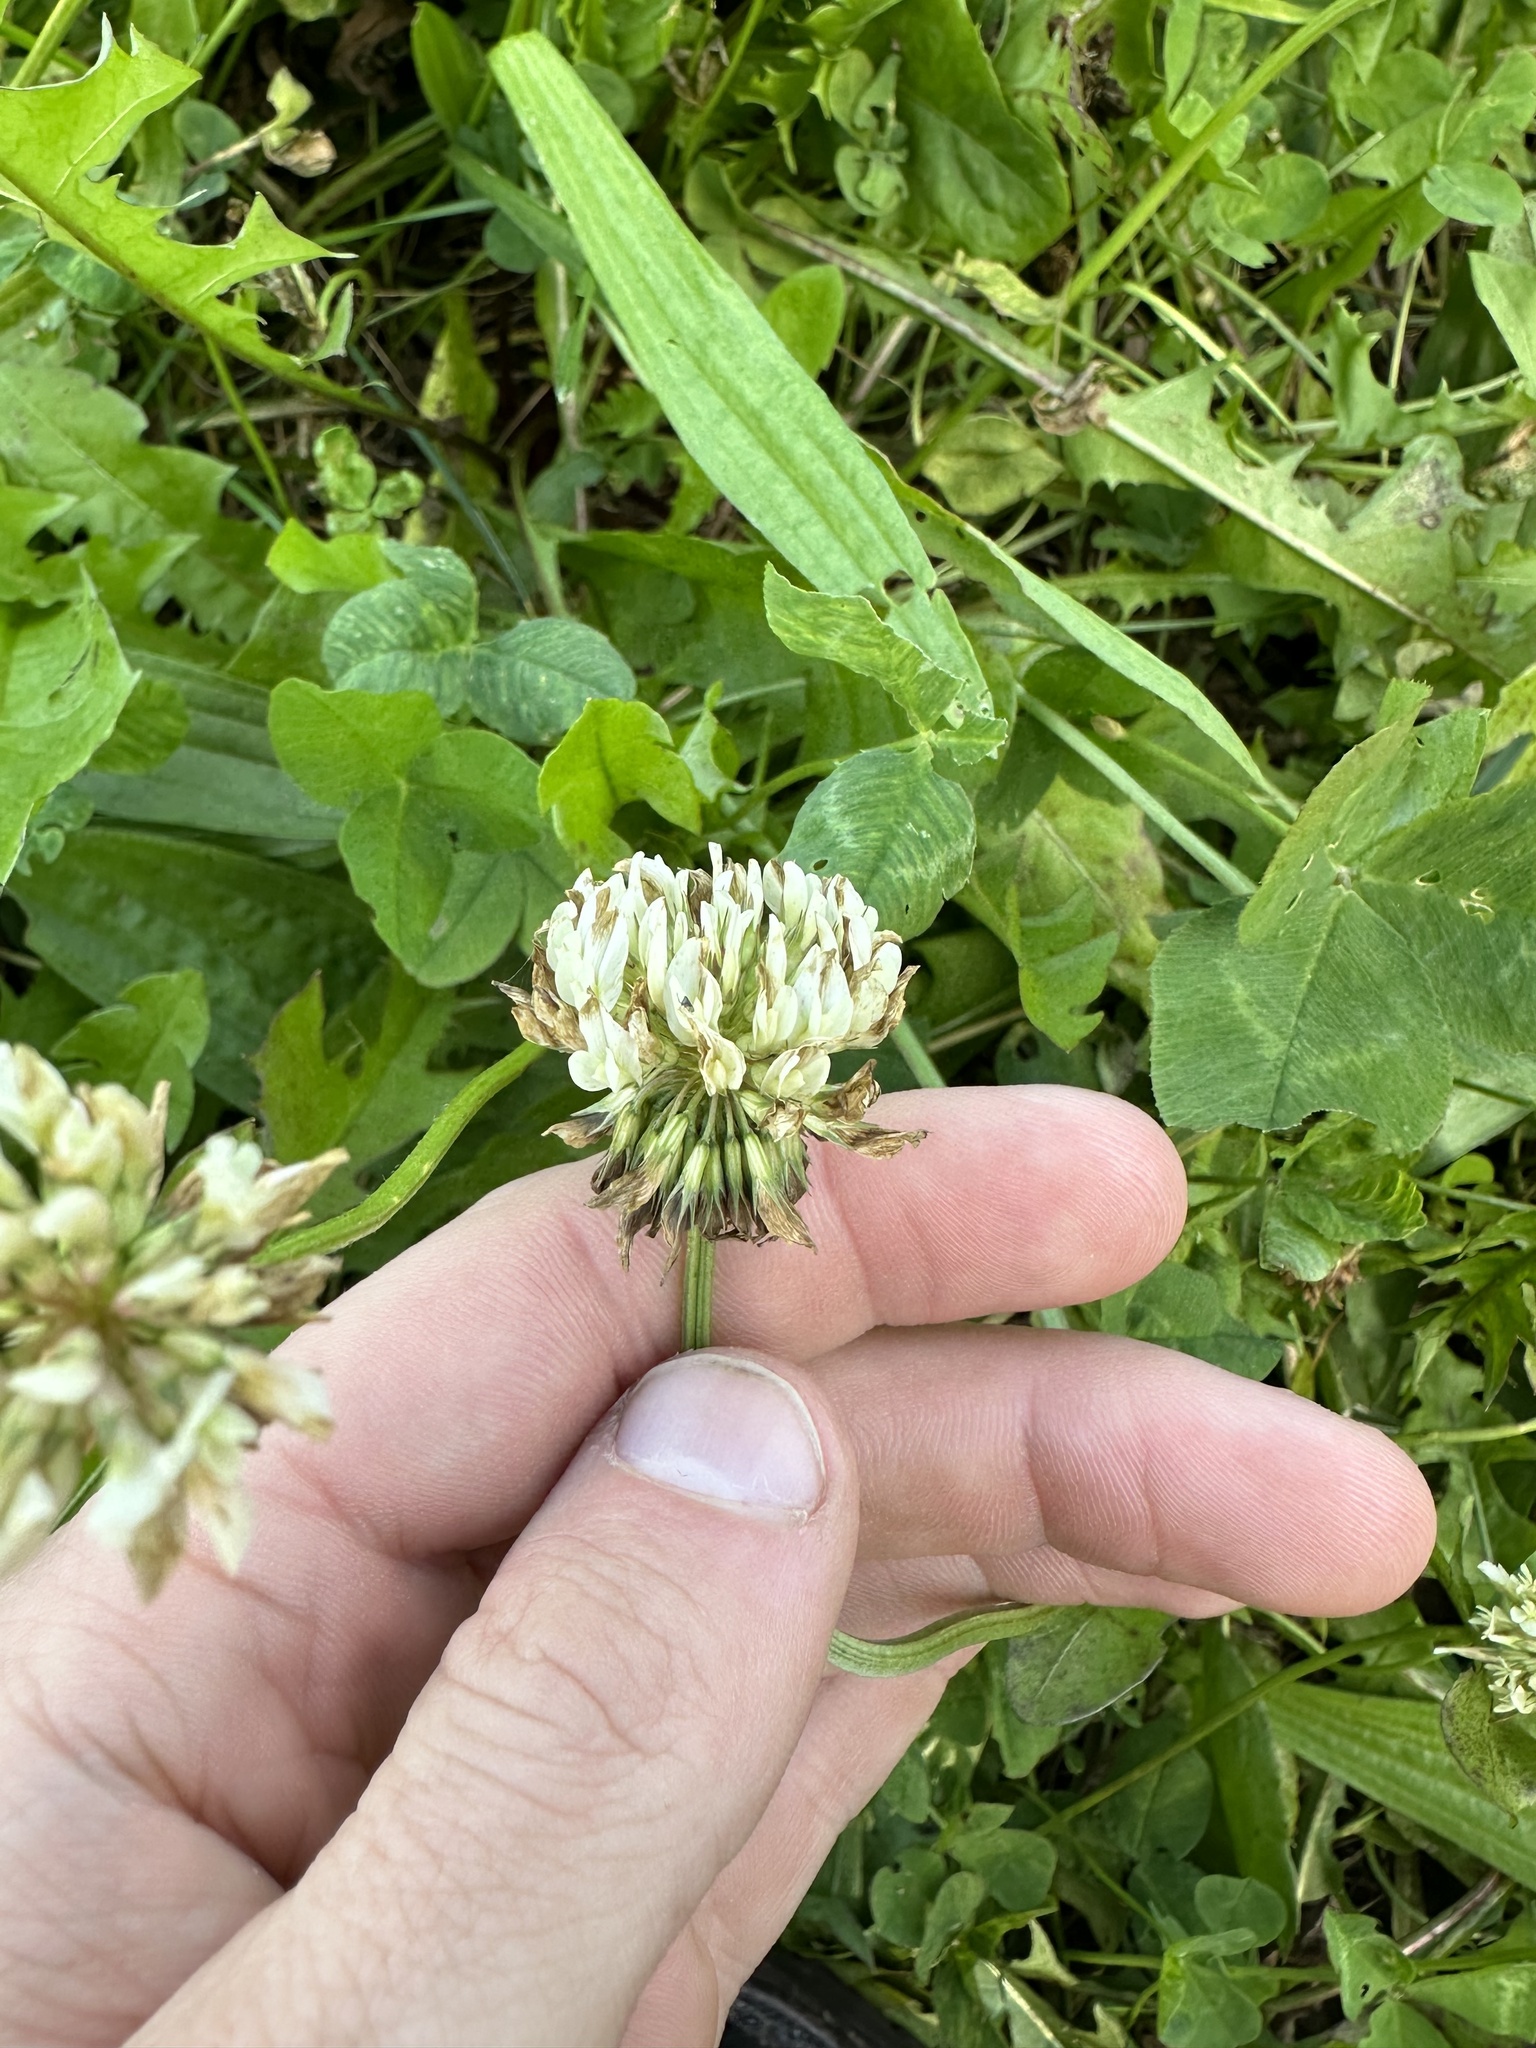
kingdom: Plantae
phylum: Tracheophyta
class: Magnoliopsida
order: Fabales
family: Fabaceae
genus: Trifolium
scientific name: Trifolium repens
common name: White clover
